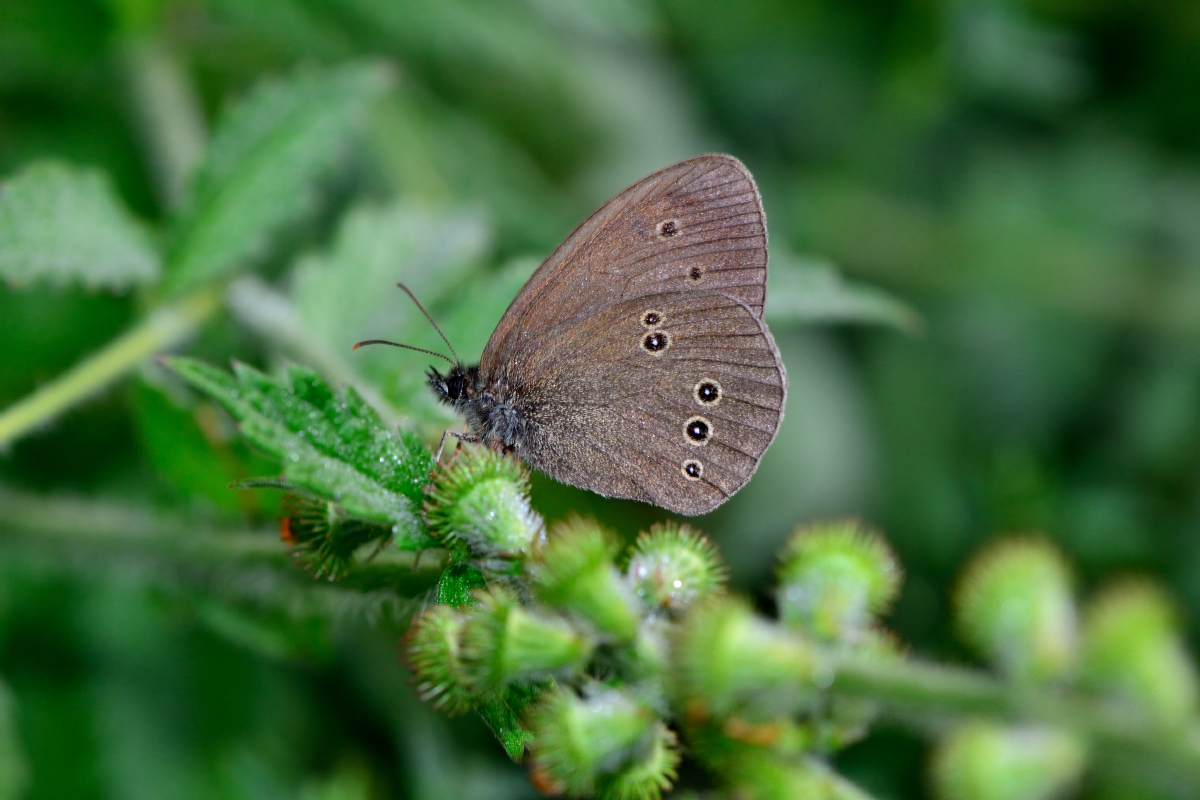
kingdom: Animalia
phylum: Arthropoda
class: Insecta
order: Lepidoptera
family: Nymphalidae
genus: Aphantopus
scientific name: Aphantopus hyperantus
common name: Ringlet
